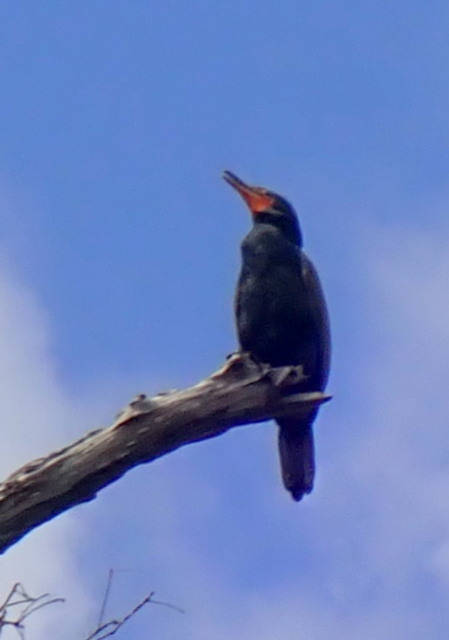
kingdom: Animalia
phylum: Chordata
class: Aves
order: Suliformes
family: Phalacrocoracidae
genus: Phalacrocorax
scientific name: Phalacrocorax auritus
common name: Double-crested cormorant
